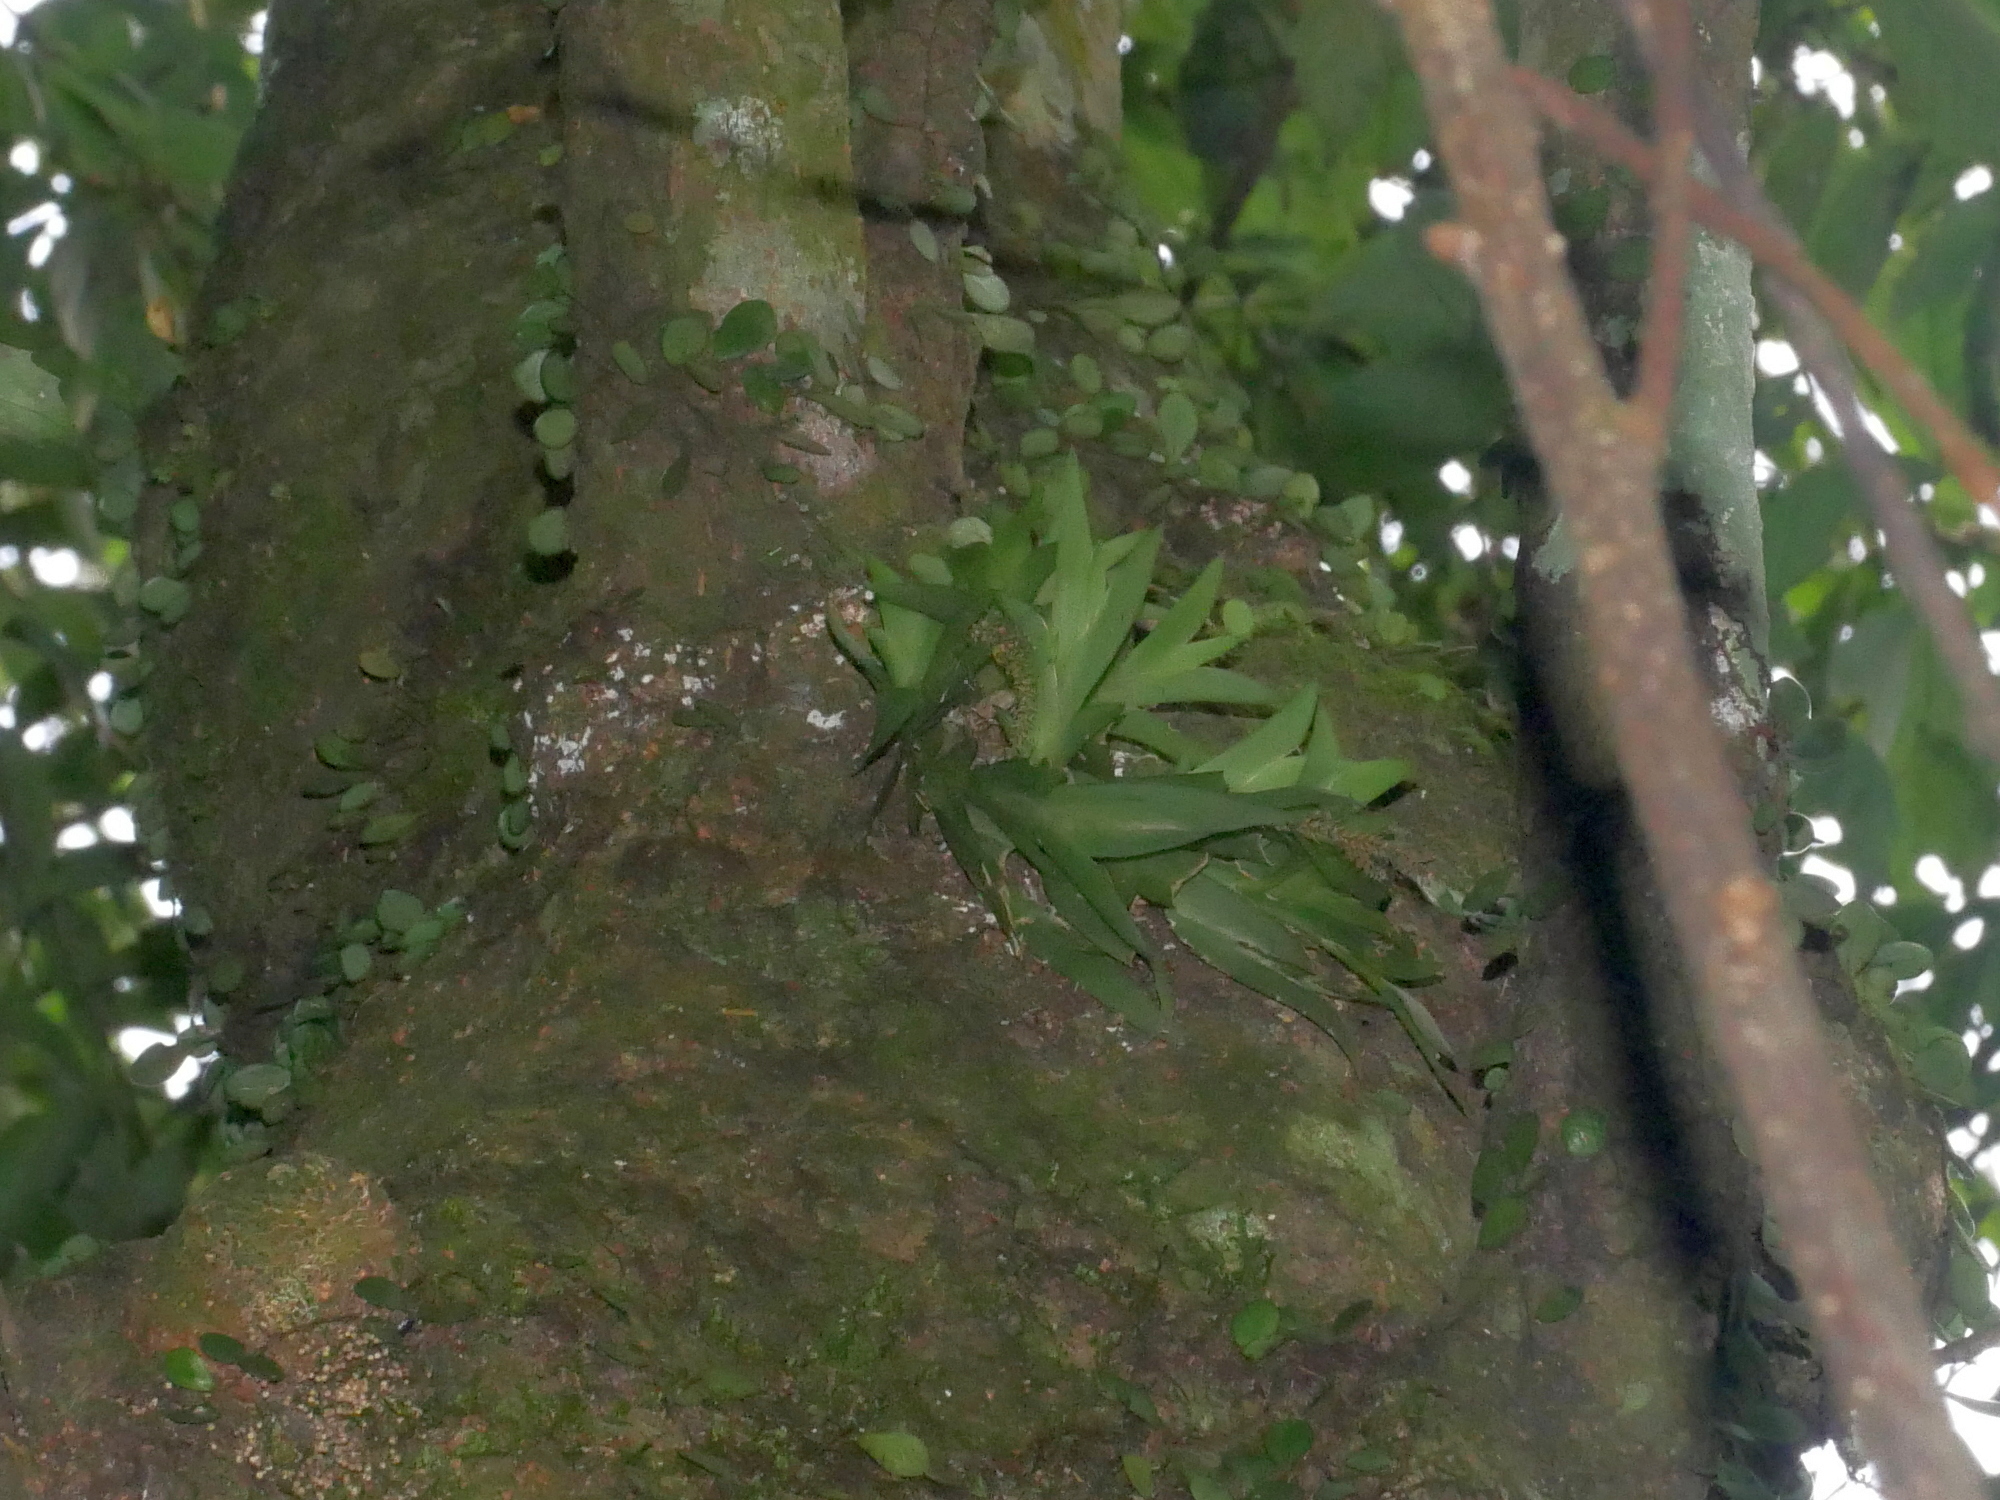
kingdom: Plantae
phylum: Tracheophyta
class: Liliopsida
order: Asparagales
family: Orchidaceae
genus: Oberonia
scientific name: Oberonia caulescens
